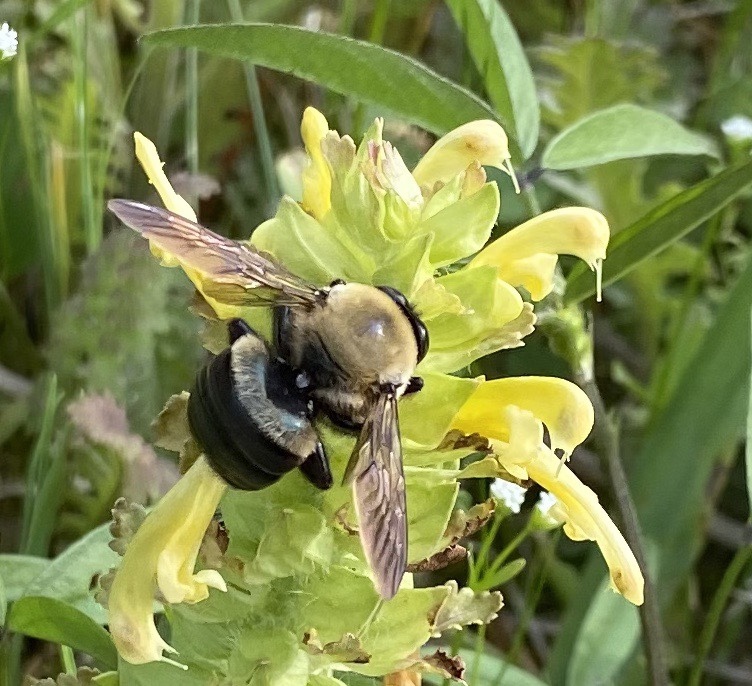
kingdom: Animalia
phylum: Arthropoda
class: Insecta
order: Hymenoptera
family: Apidae
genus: Xylocopa
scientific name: Xylocopa virginica
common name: Carpenter bee
